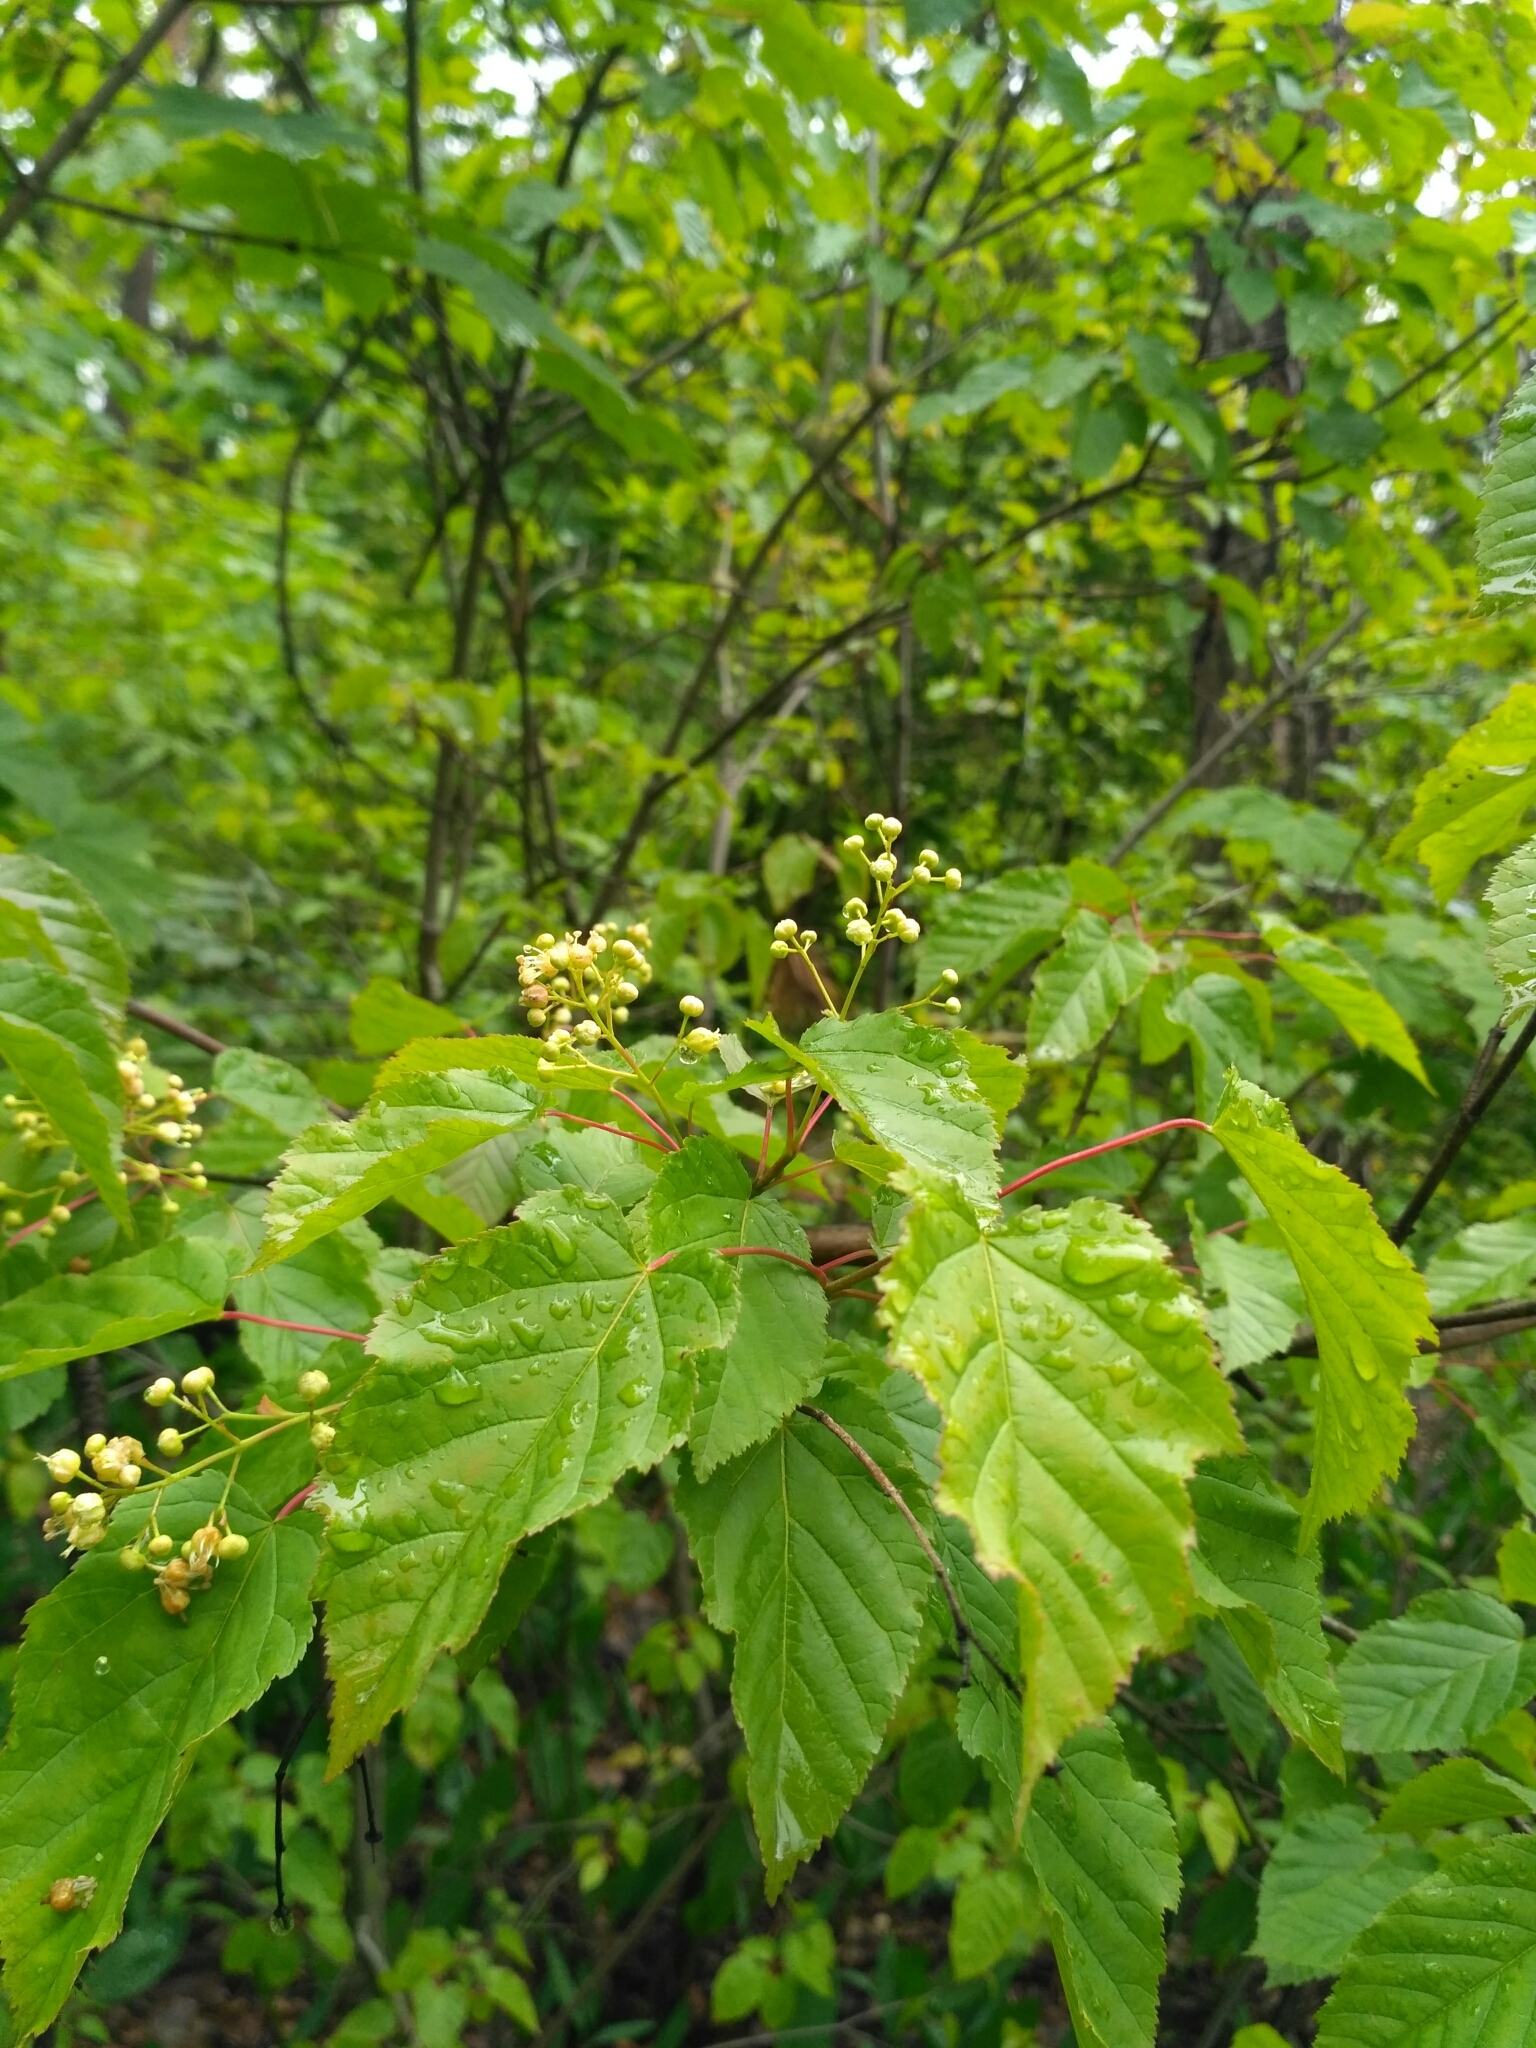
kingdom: Plantae
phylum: Tracheophyta
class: Magnoliopsida
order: Sapindales
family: Sapindaceae
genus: Acer
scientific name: Acer tataricum
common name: Tartar maple
